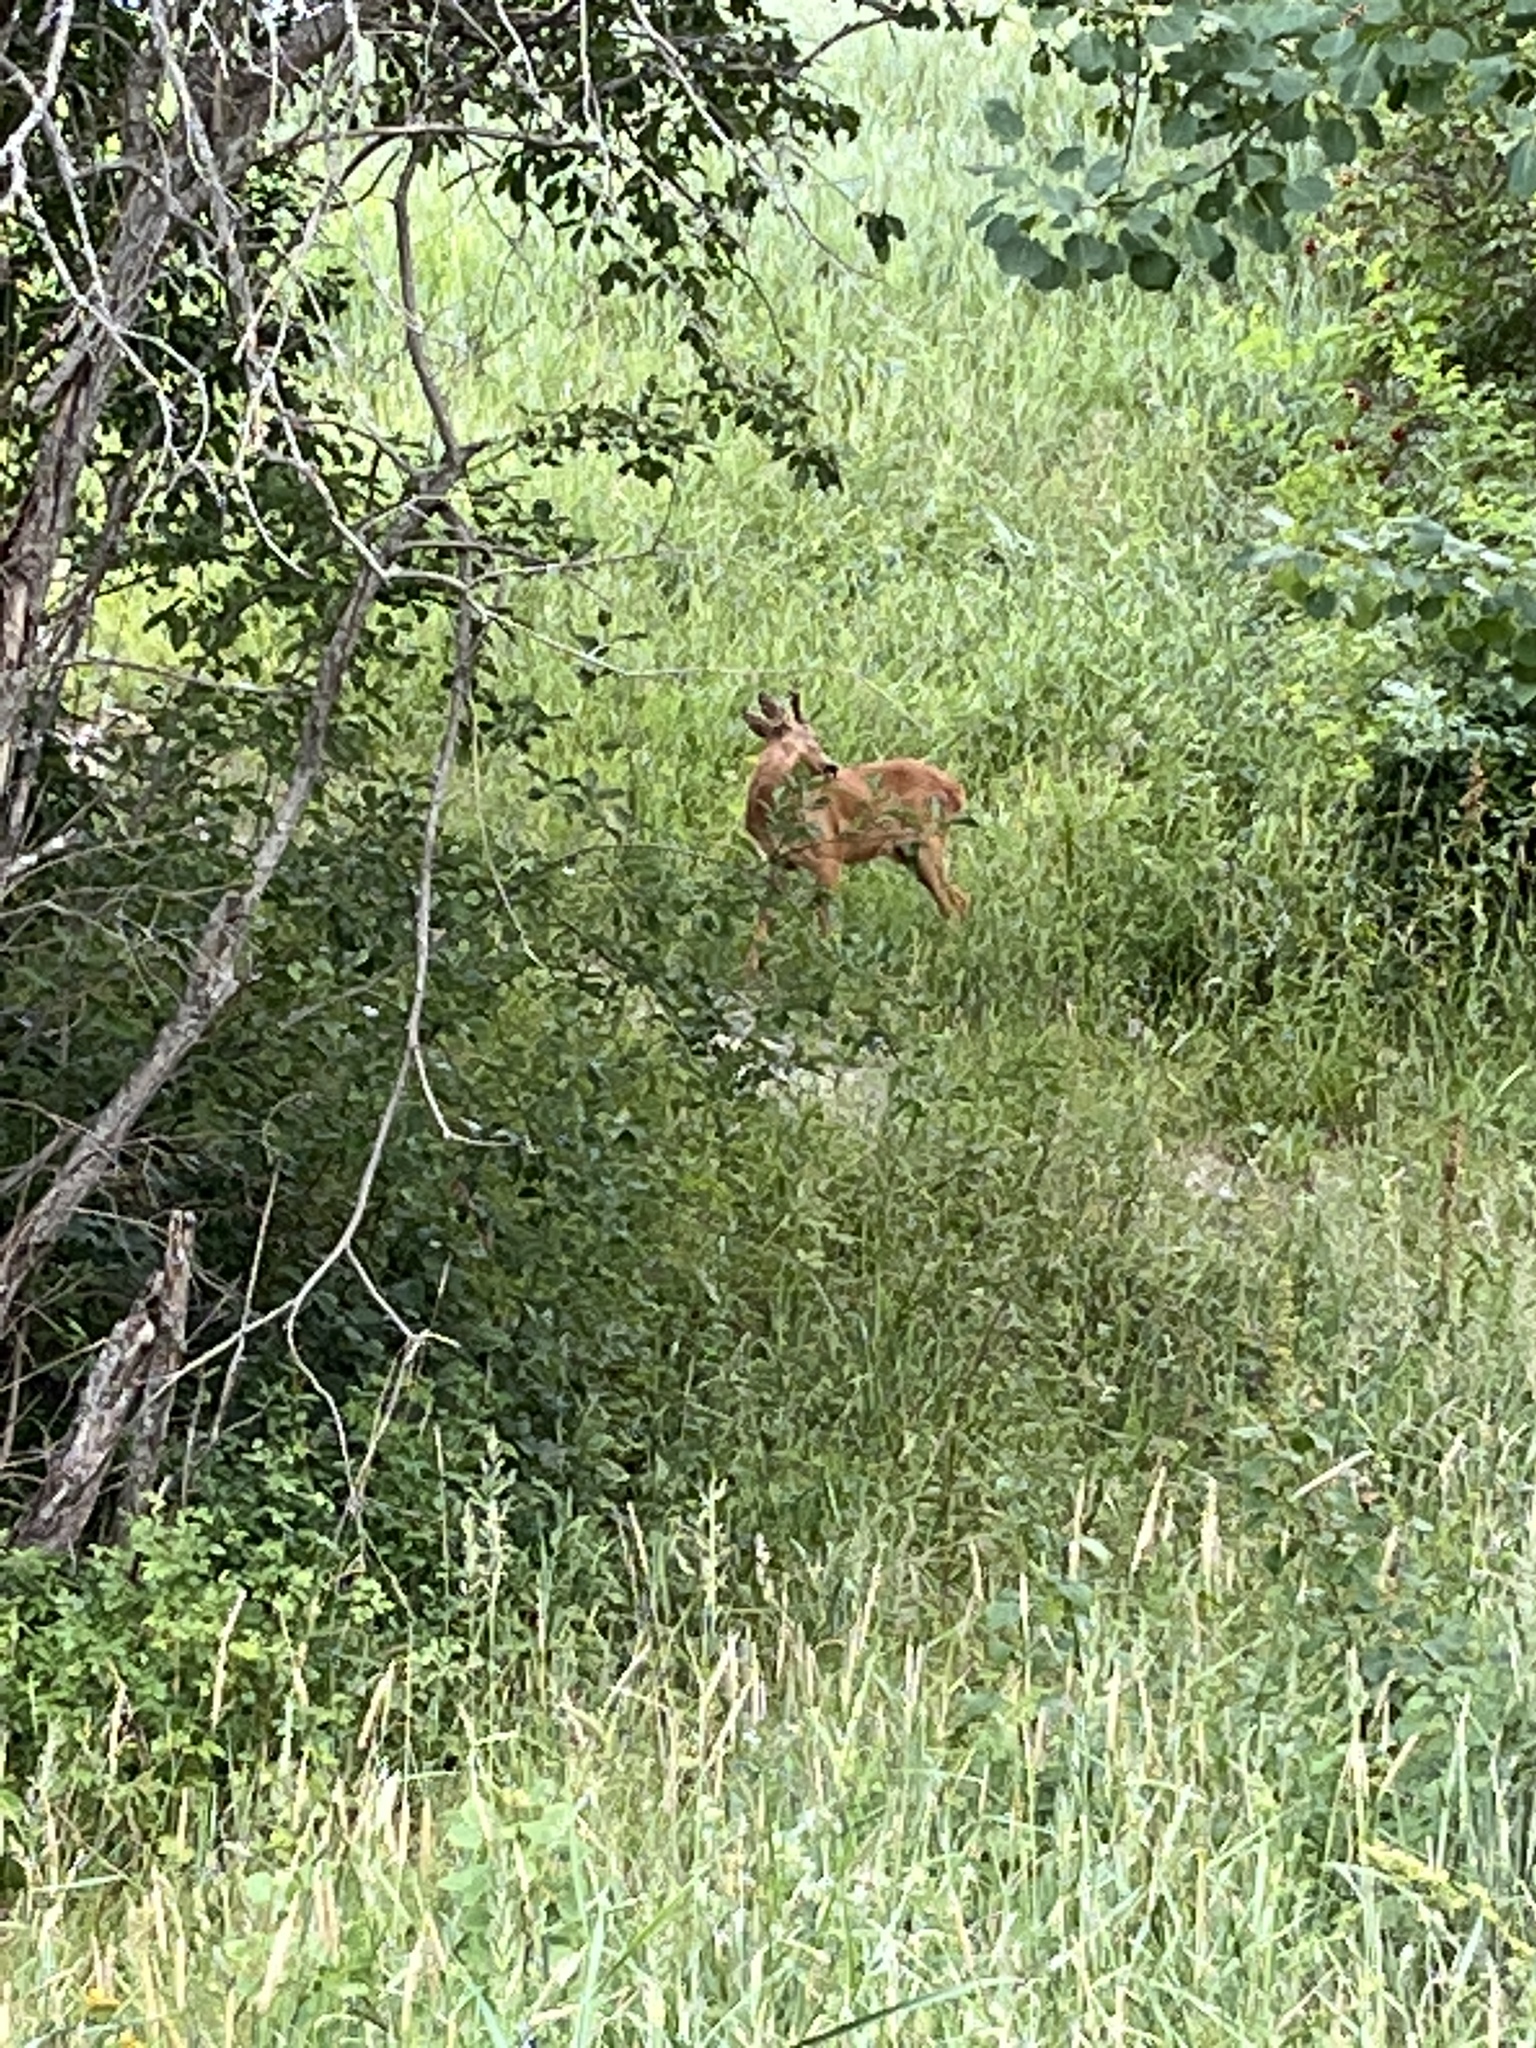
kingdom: Animalia
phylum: Chordata
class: Mammalia
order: Artiodactyla
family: Cervidae
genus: Capreolus
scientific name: Capreolus capreolus
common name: Western roe deer
